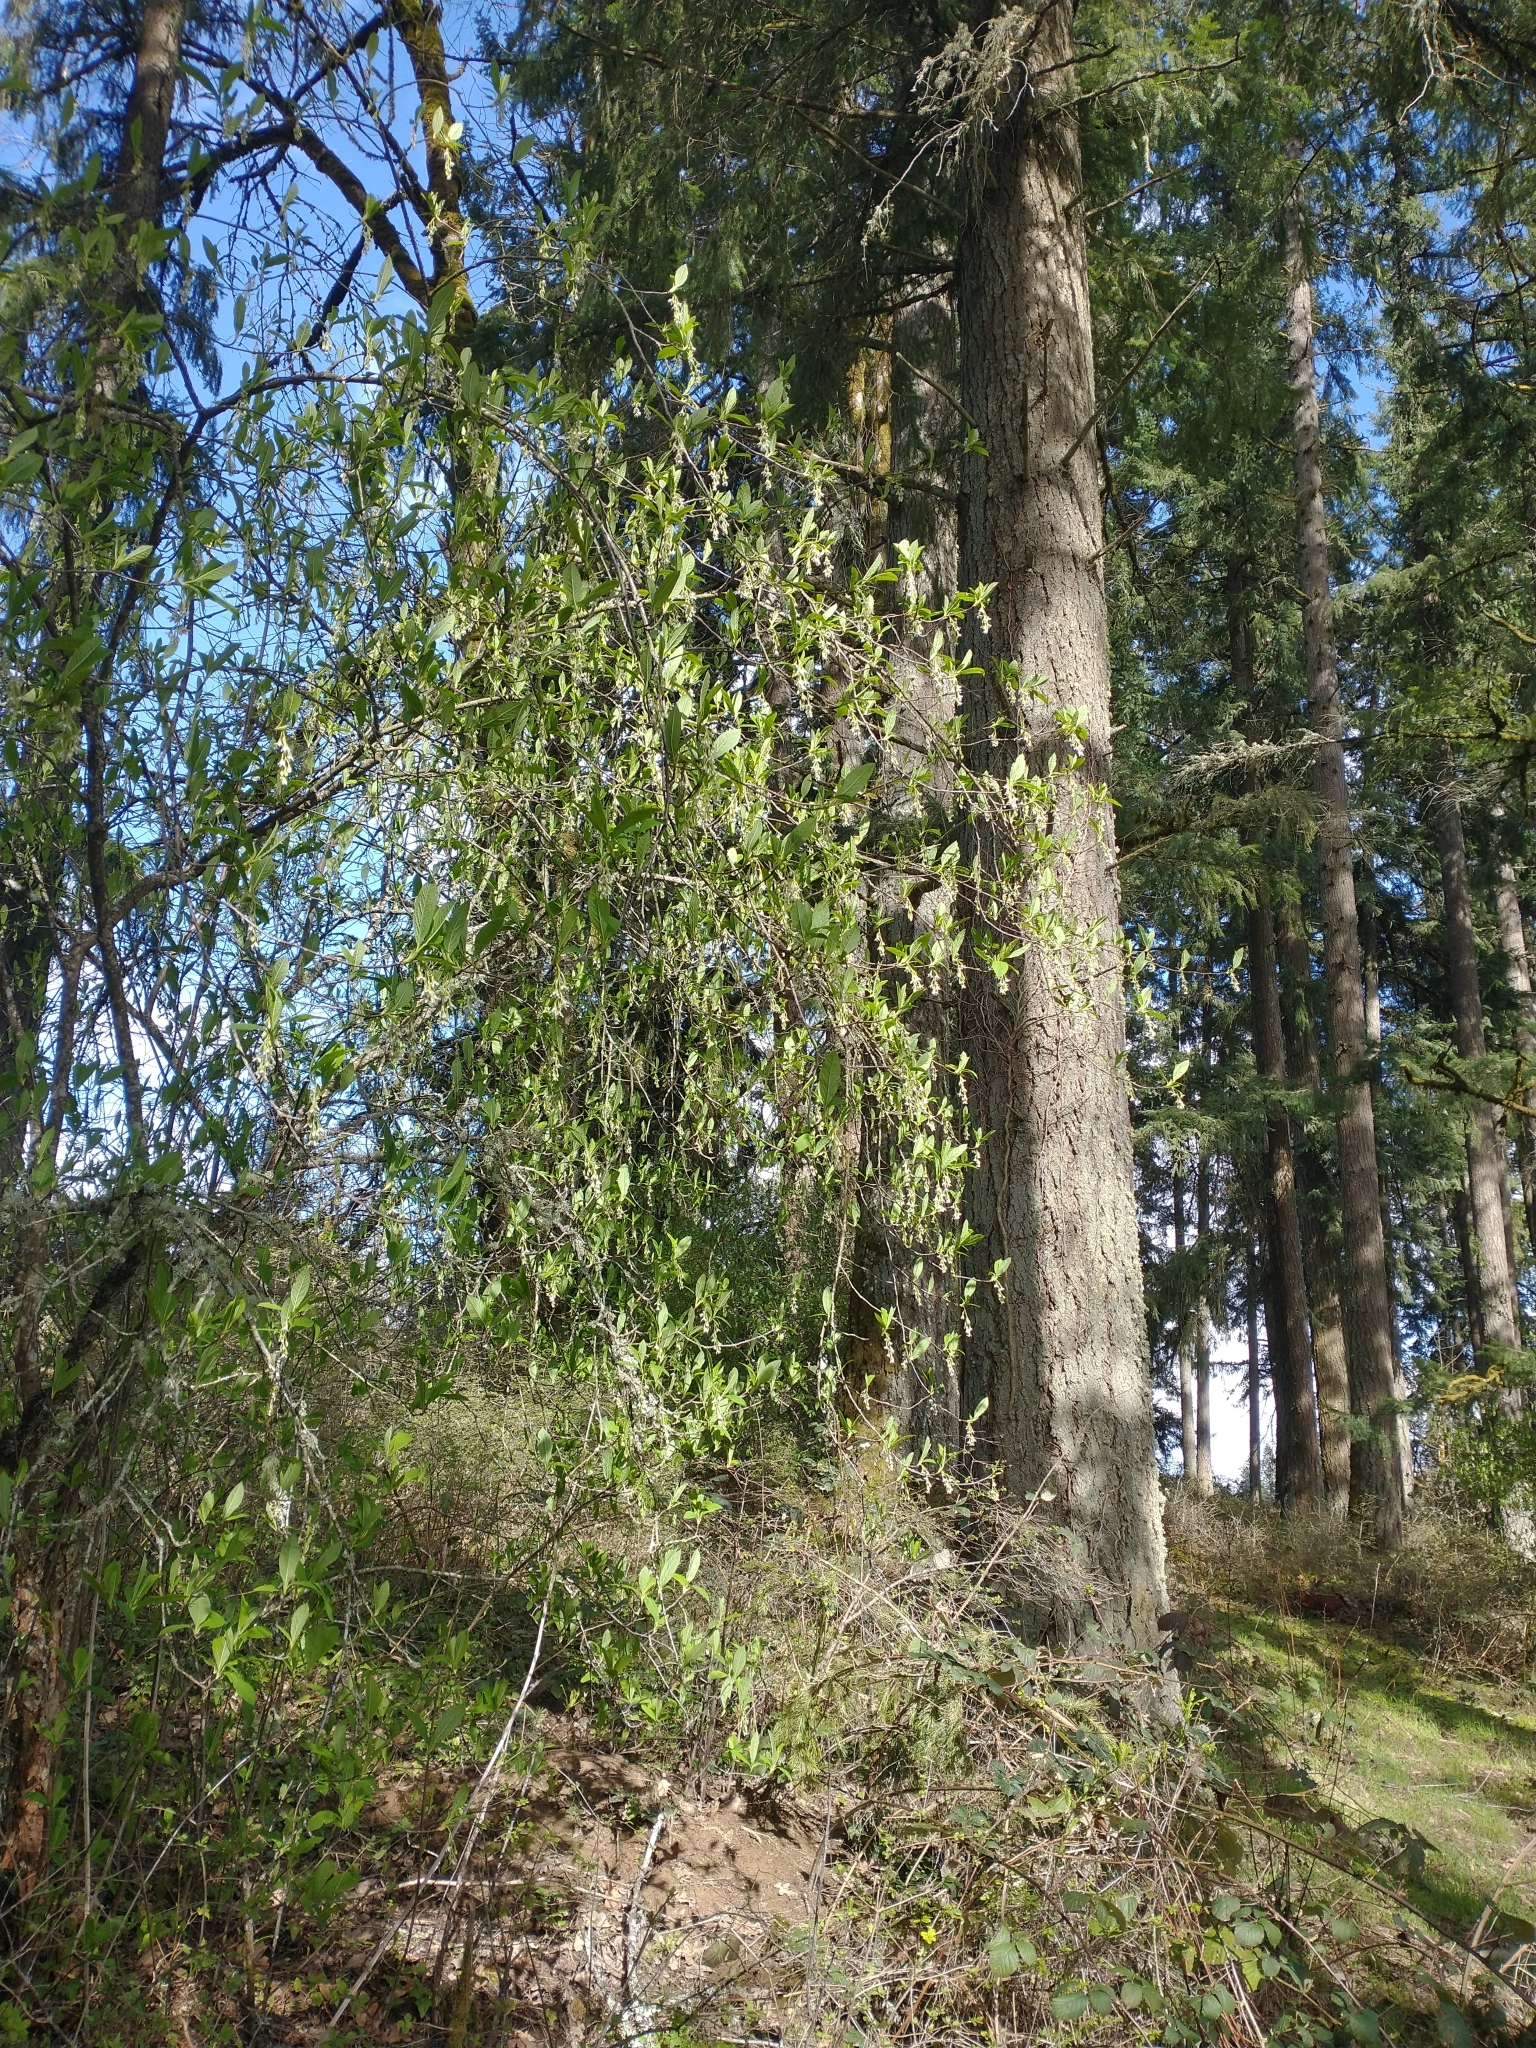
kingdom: Plantae
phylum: Tracheophyta
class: Magnoliopsida
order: Rosales
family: Rosaceae
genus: Oemleria
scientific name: Oemleria cerasiformis
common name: Osoberry
